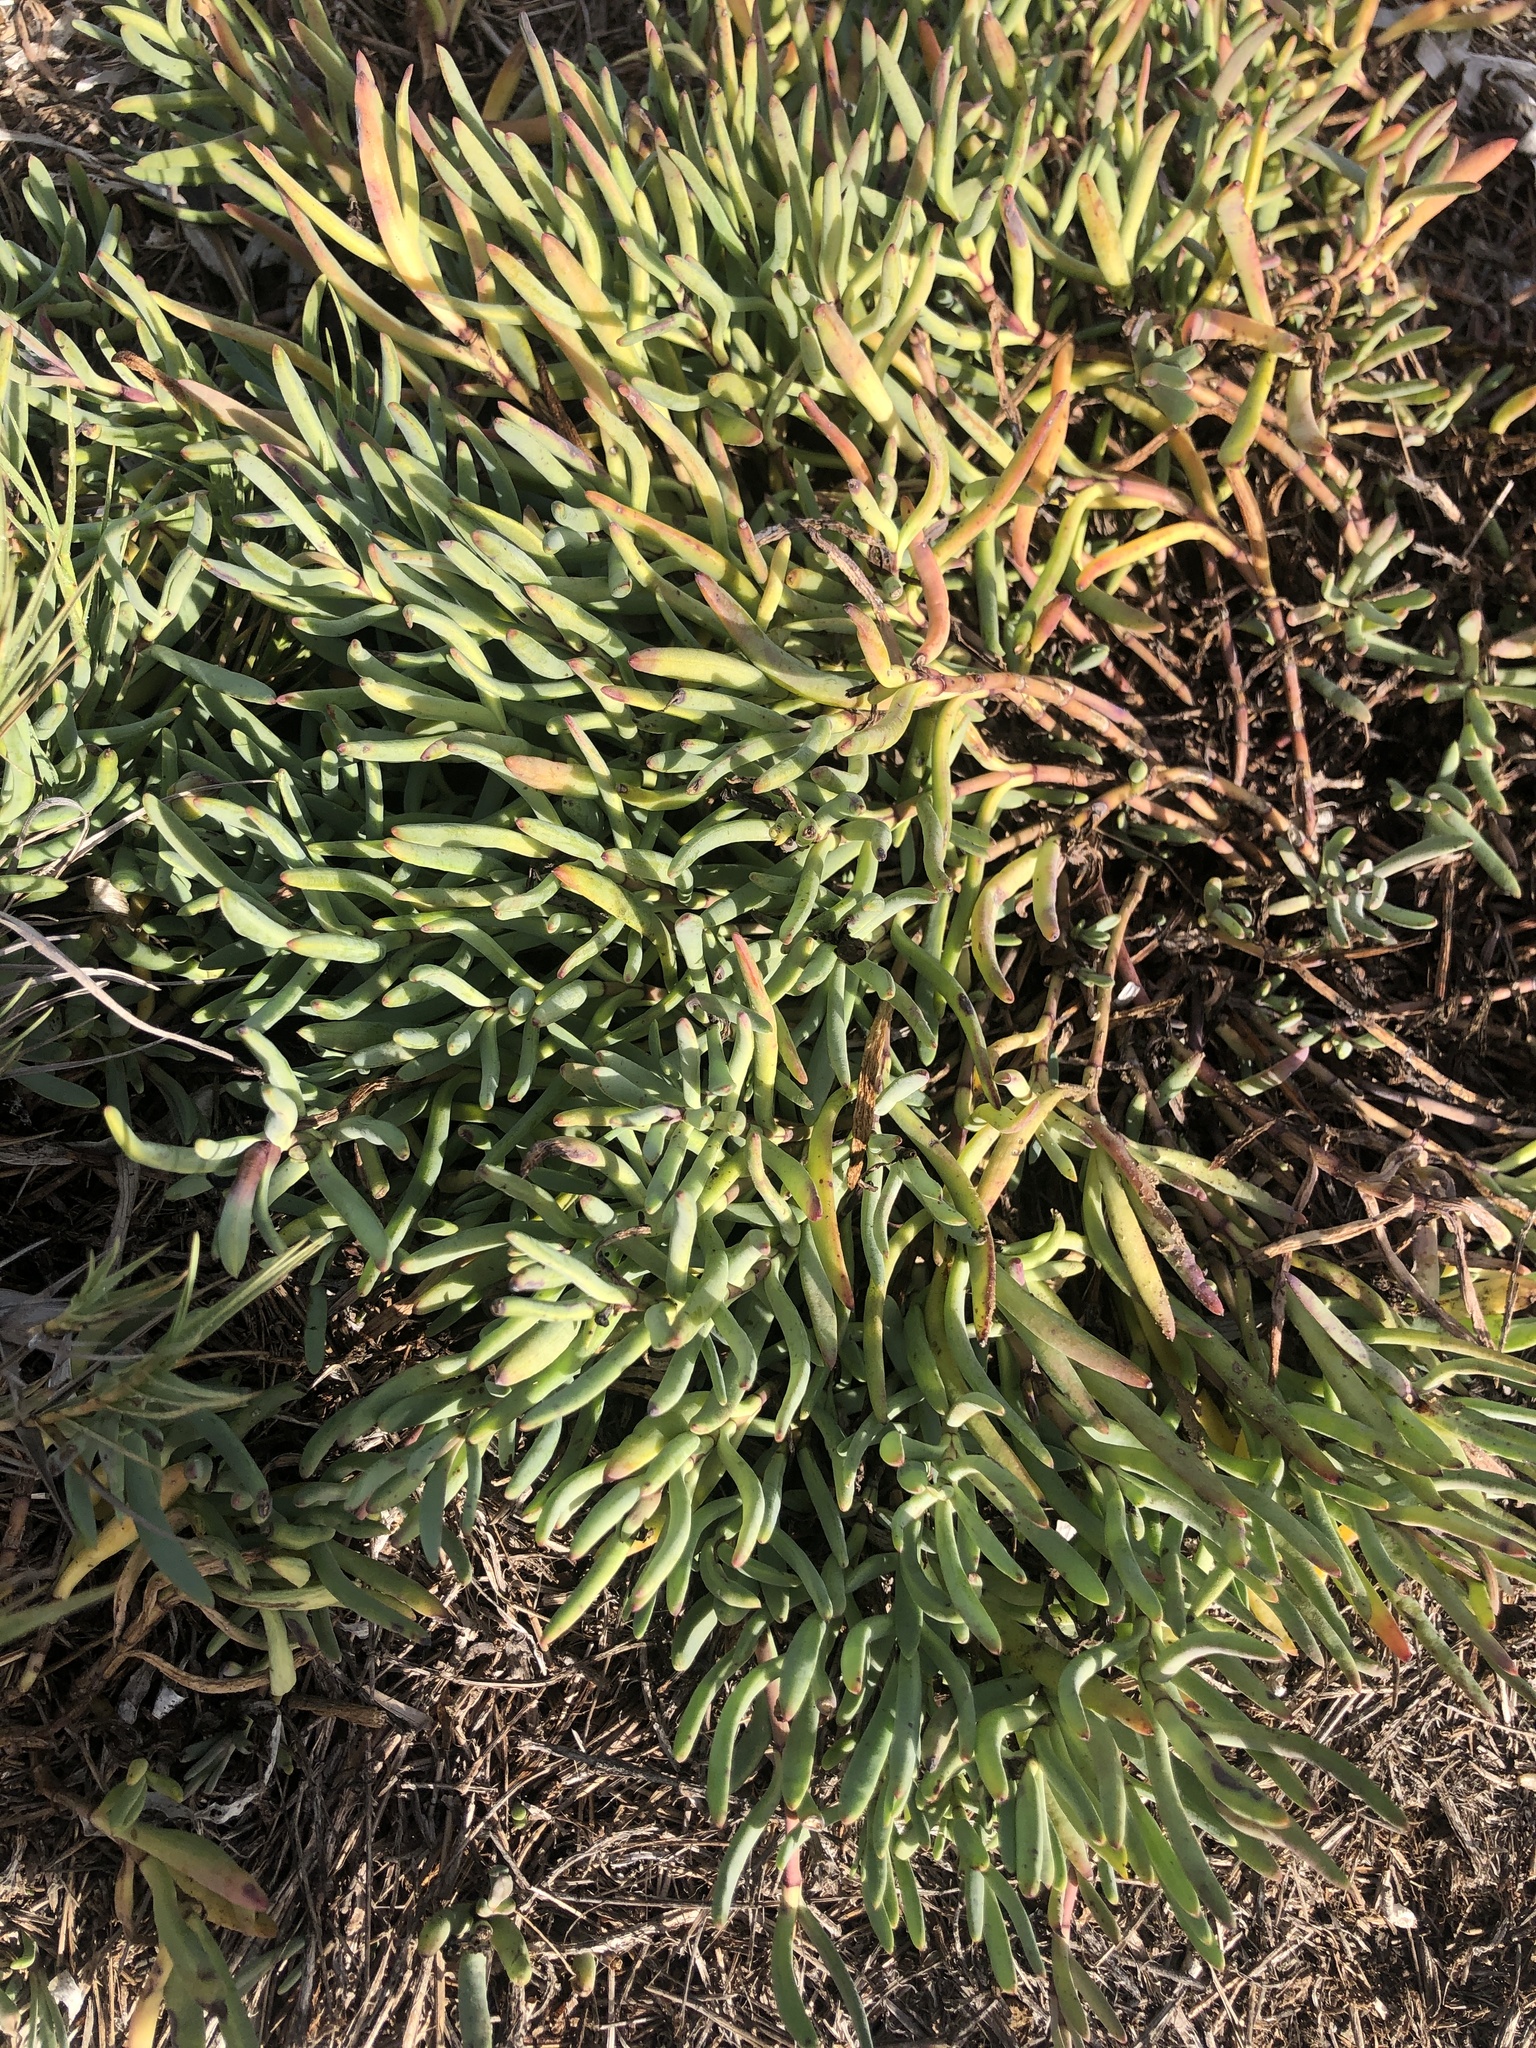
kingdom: Plantae
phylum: Tracheophyta
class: Magnoliopsida
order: Asterales
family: Asteraceae
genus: Jaumea
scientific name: Jaumea carnosa
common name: Fleshy jaumea
